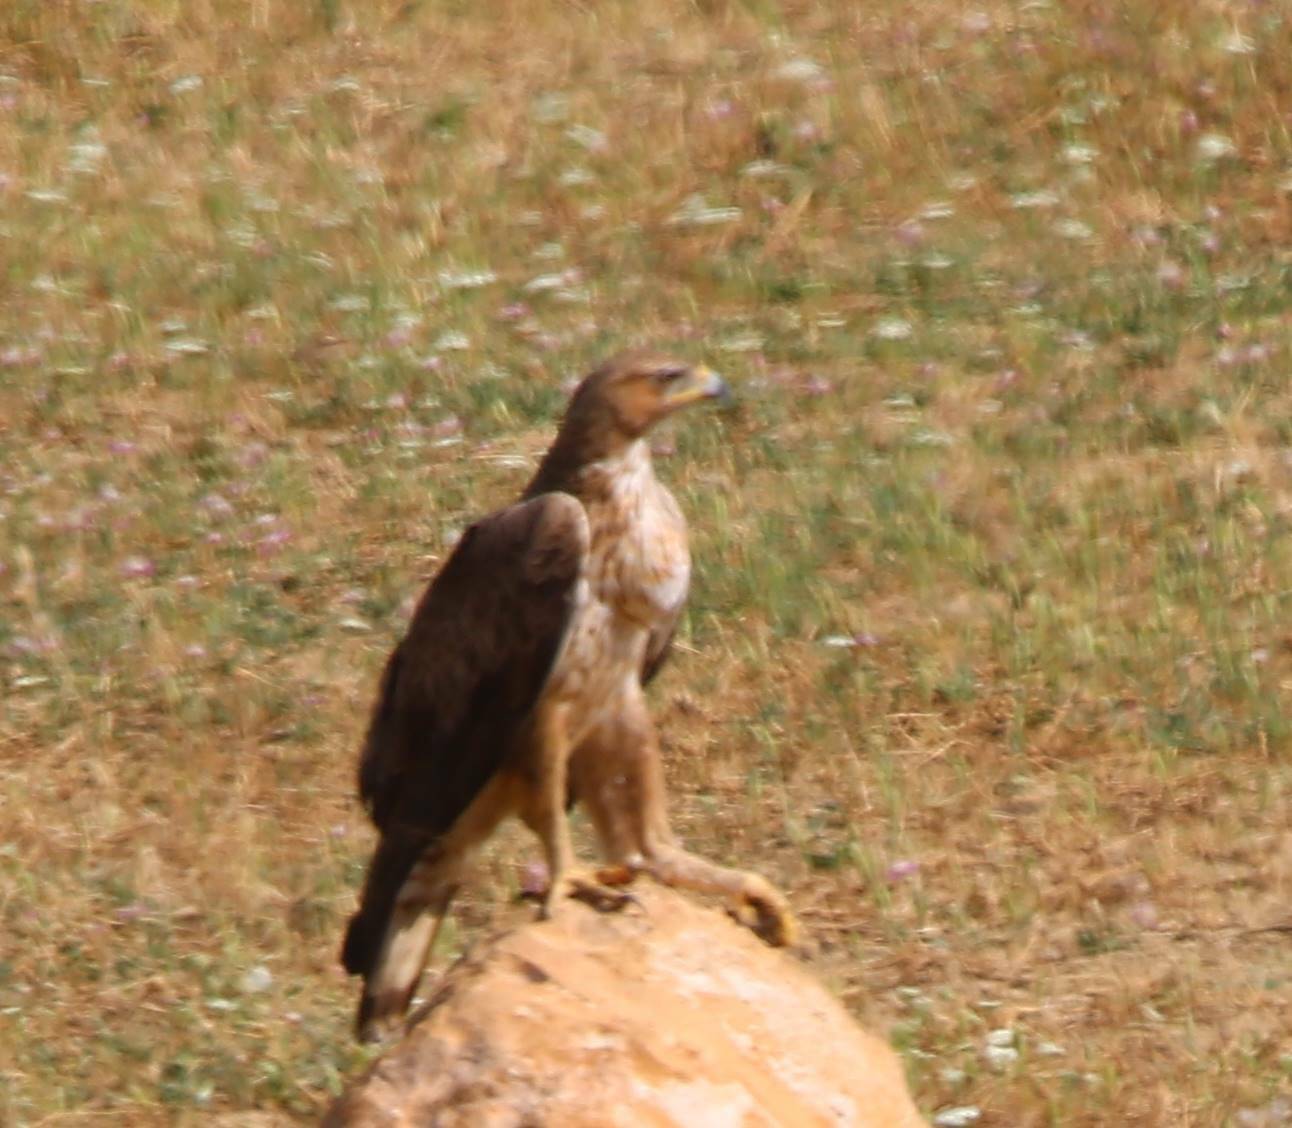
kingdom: Animalia
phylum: Chordata
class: Aves
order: Accipitriformes
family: Accipitridae
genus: Aquila
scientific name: Aquila fasciata
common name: Bonelli's eagle
